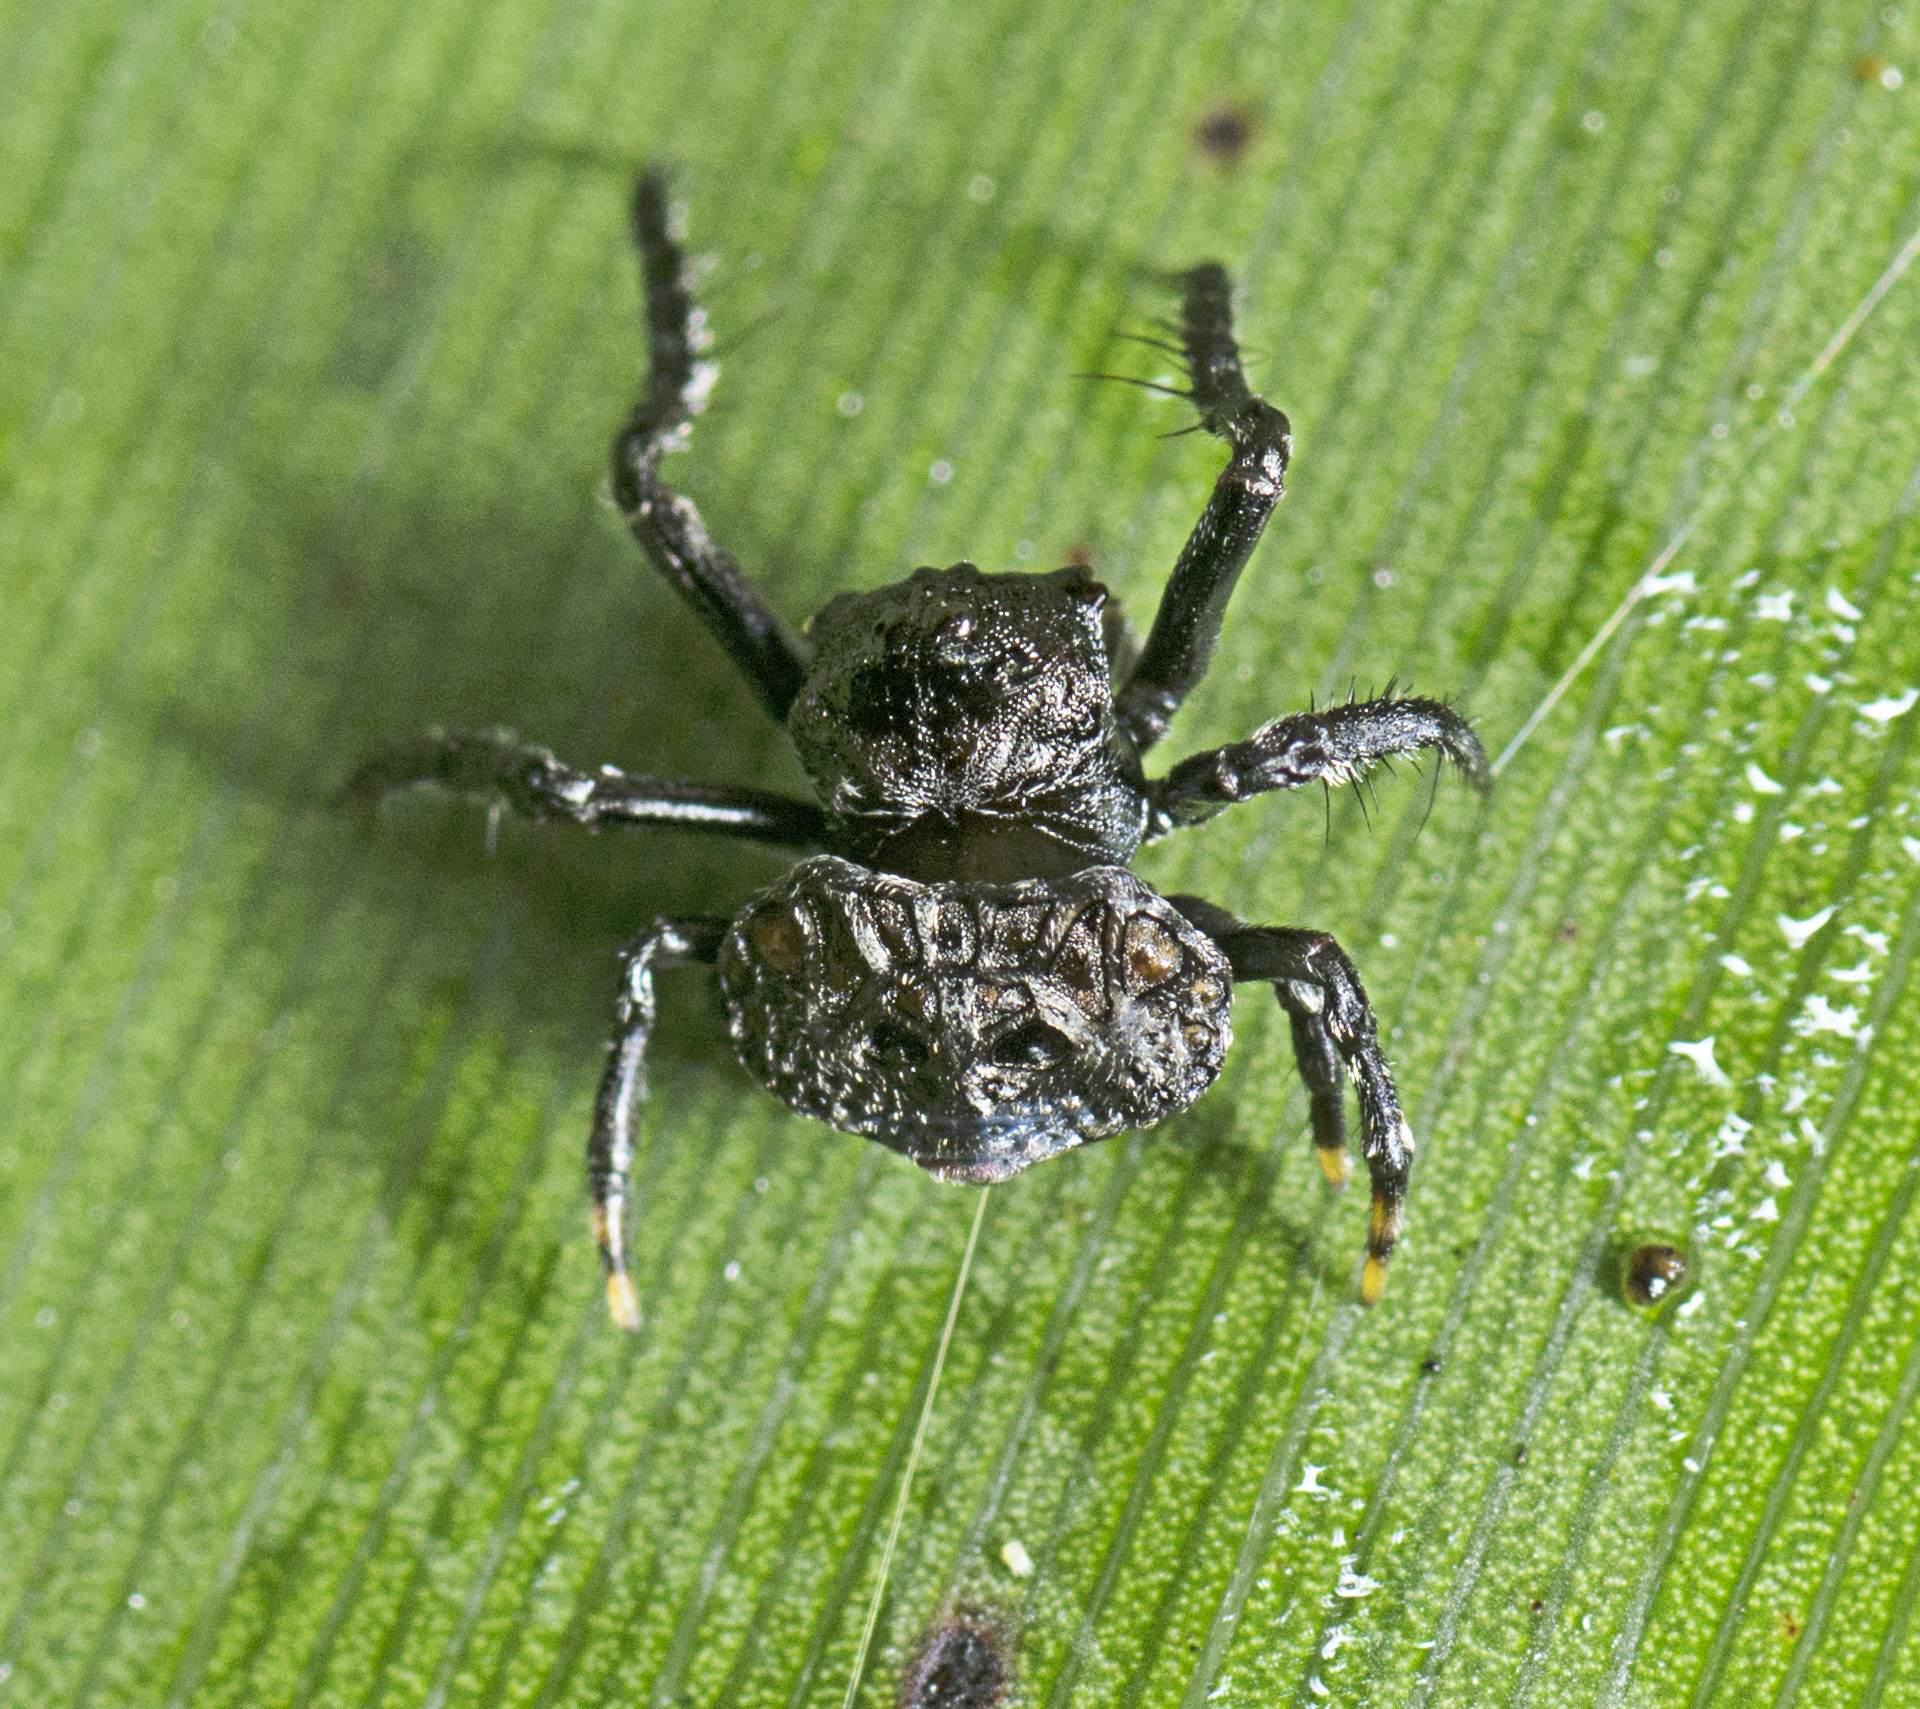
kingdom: Animalia
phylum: Arthropoda
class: Arachnida
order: Araneae
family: Arkyidae
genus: Arkys
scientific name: Arkys curtulus
